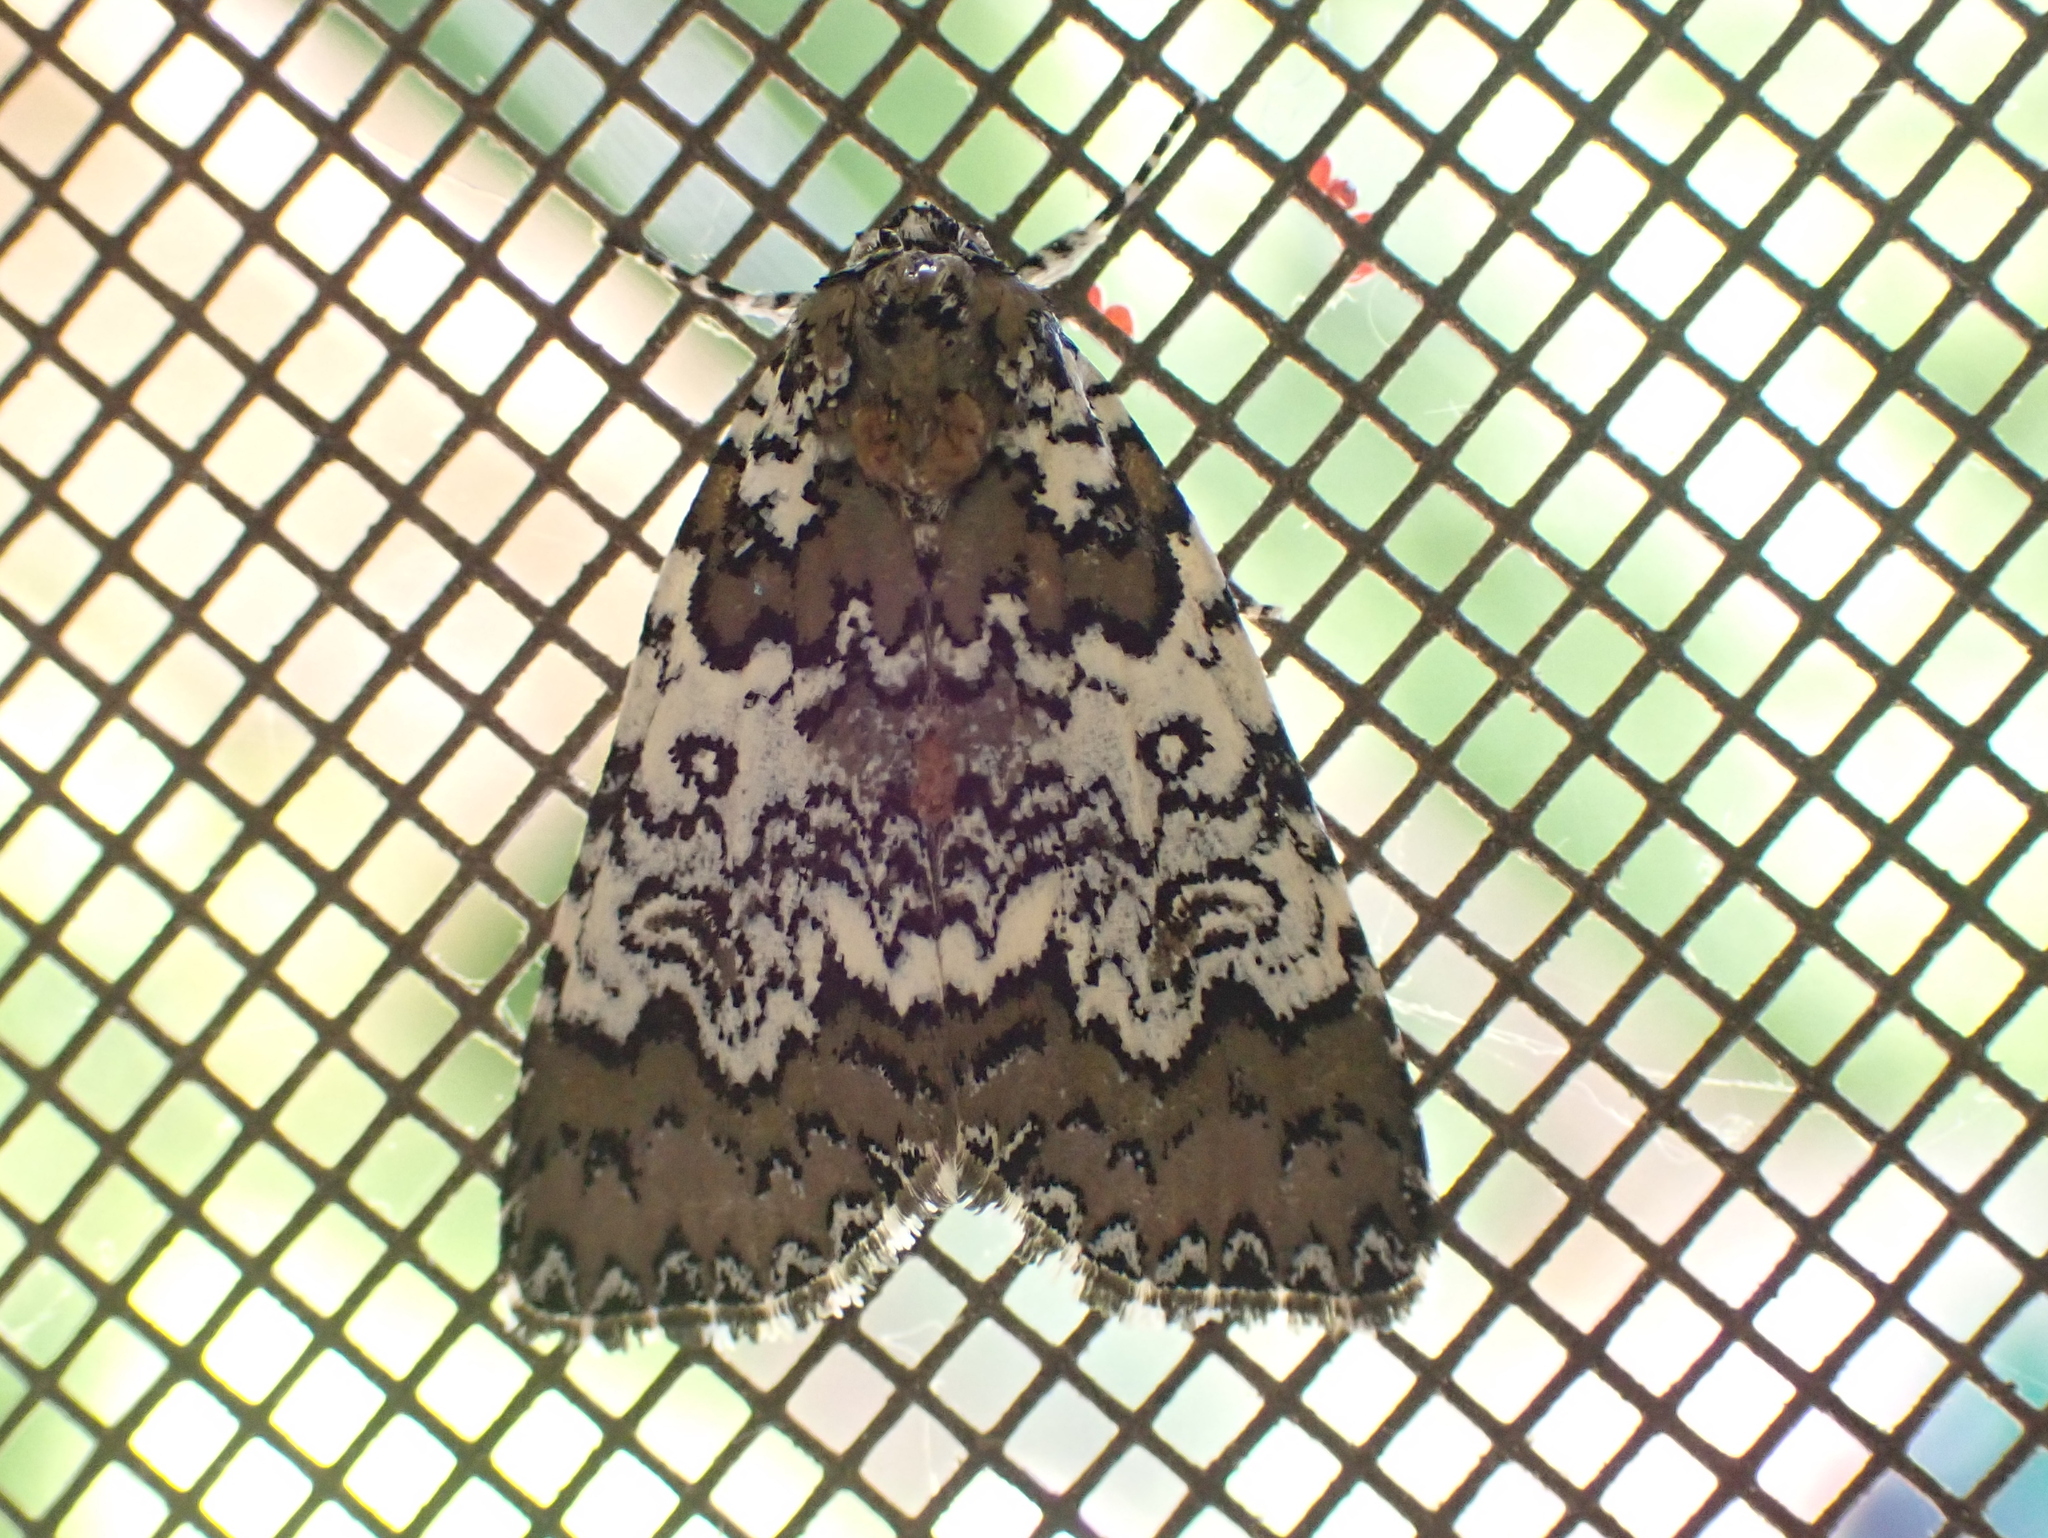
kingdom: Animalia
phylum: Arthropoda
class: Insecta
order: Lepidoptera
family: Noctuidae
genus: Cerma
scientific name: Cerma cora
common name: Bird dropping moth
